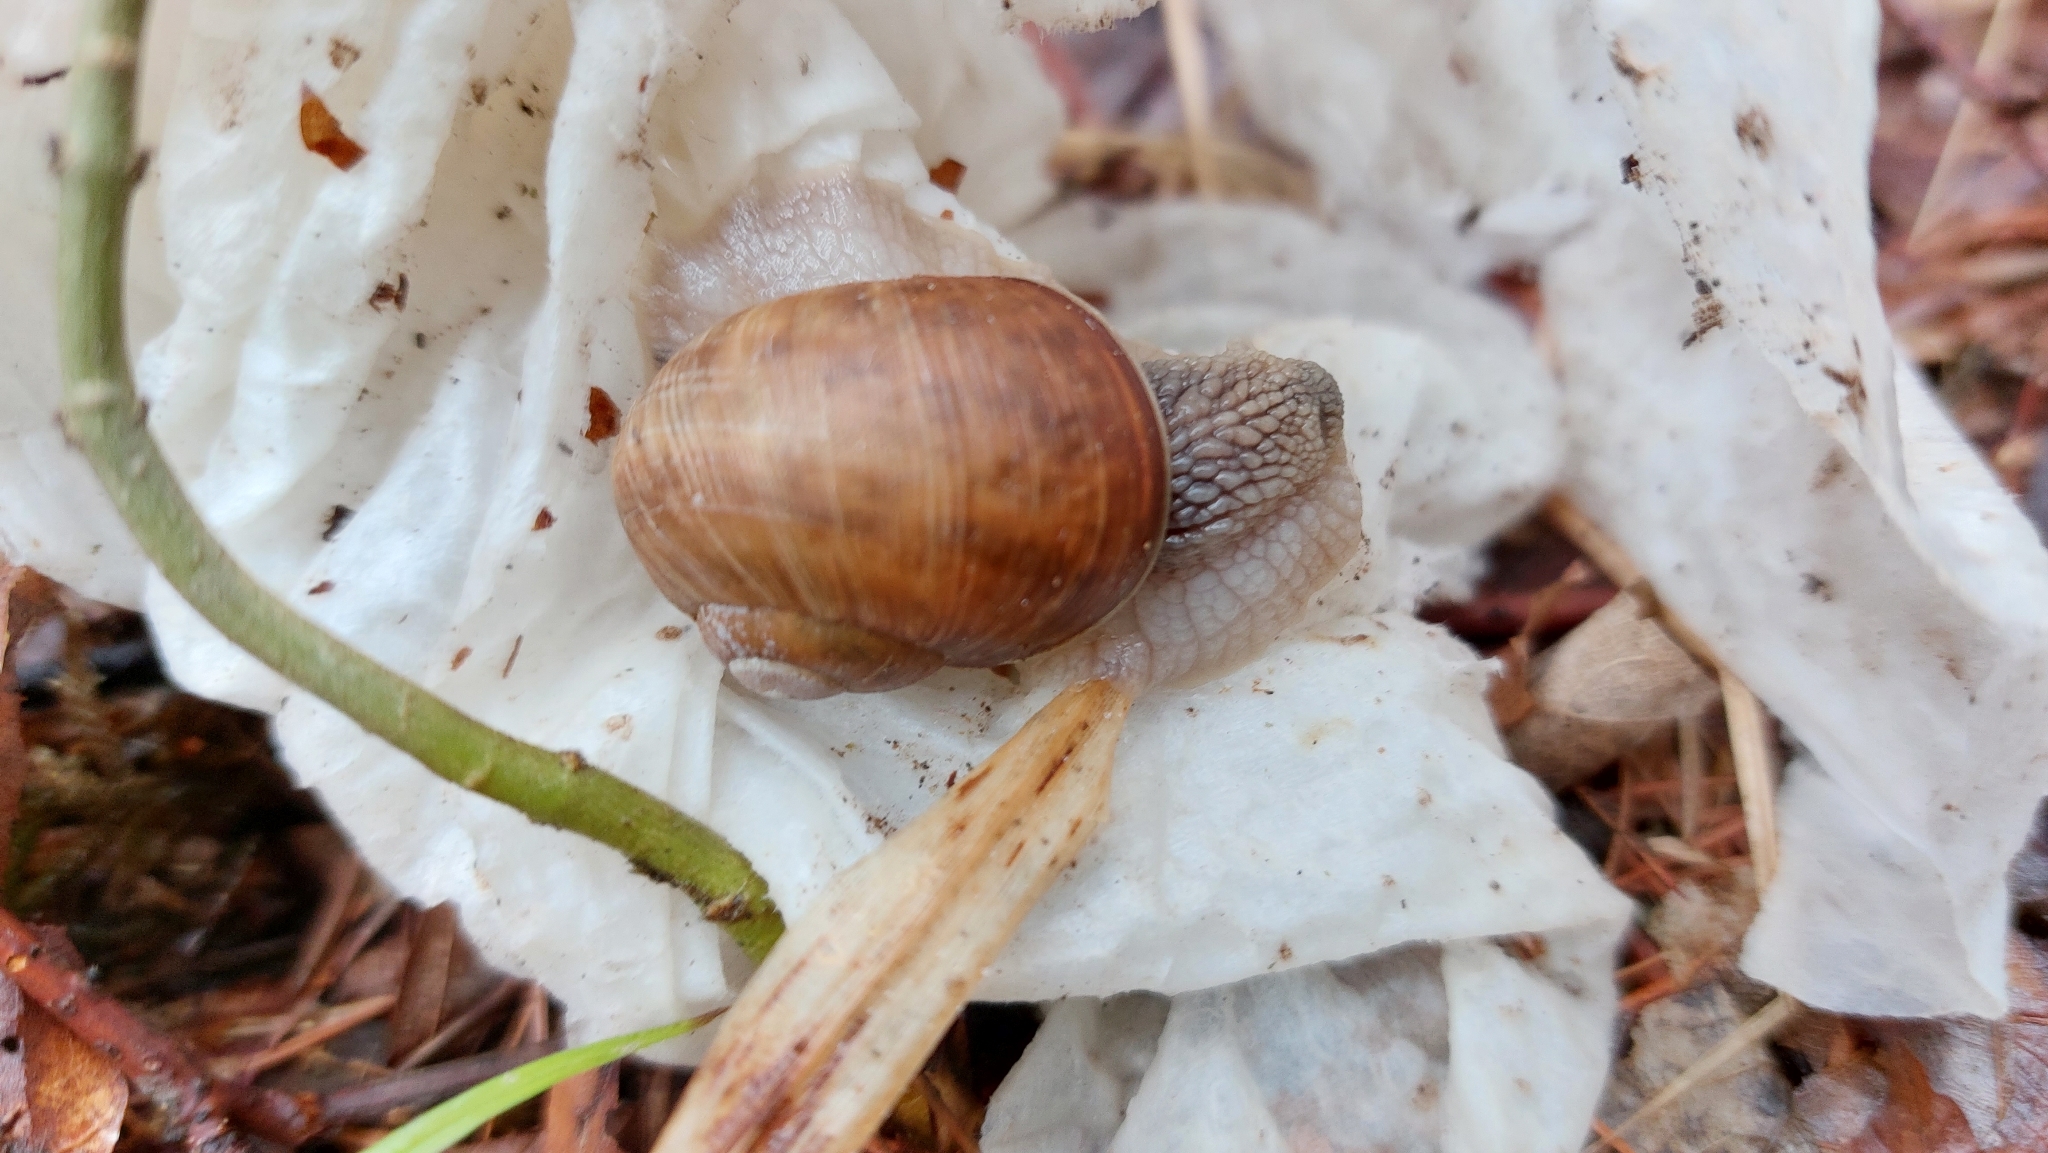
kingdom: Animalia
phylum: Mollusca
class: Gastropoda
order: Stylommatophora
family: Helicidae
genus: Helix
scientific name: Helix pomatia
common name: Roman snail
